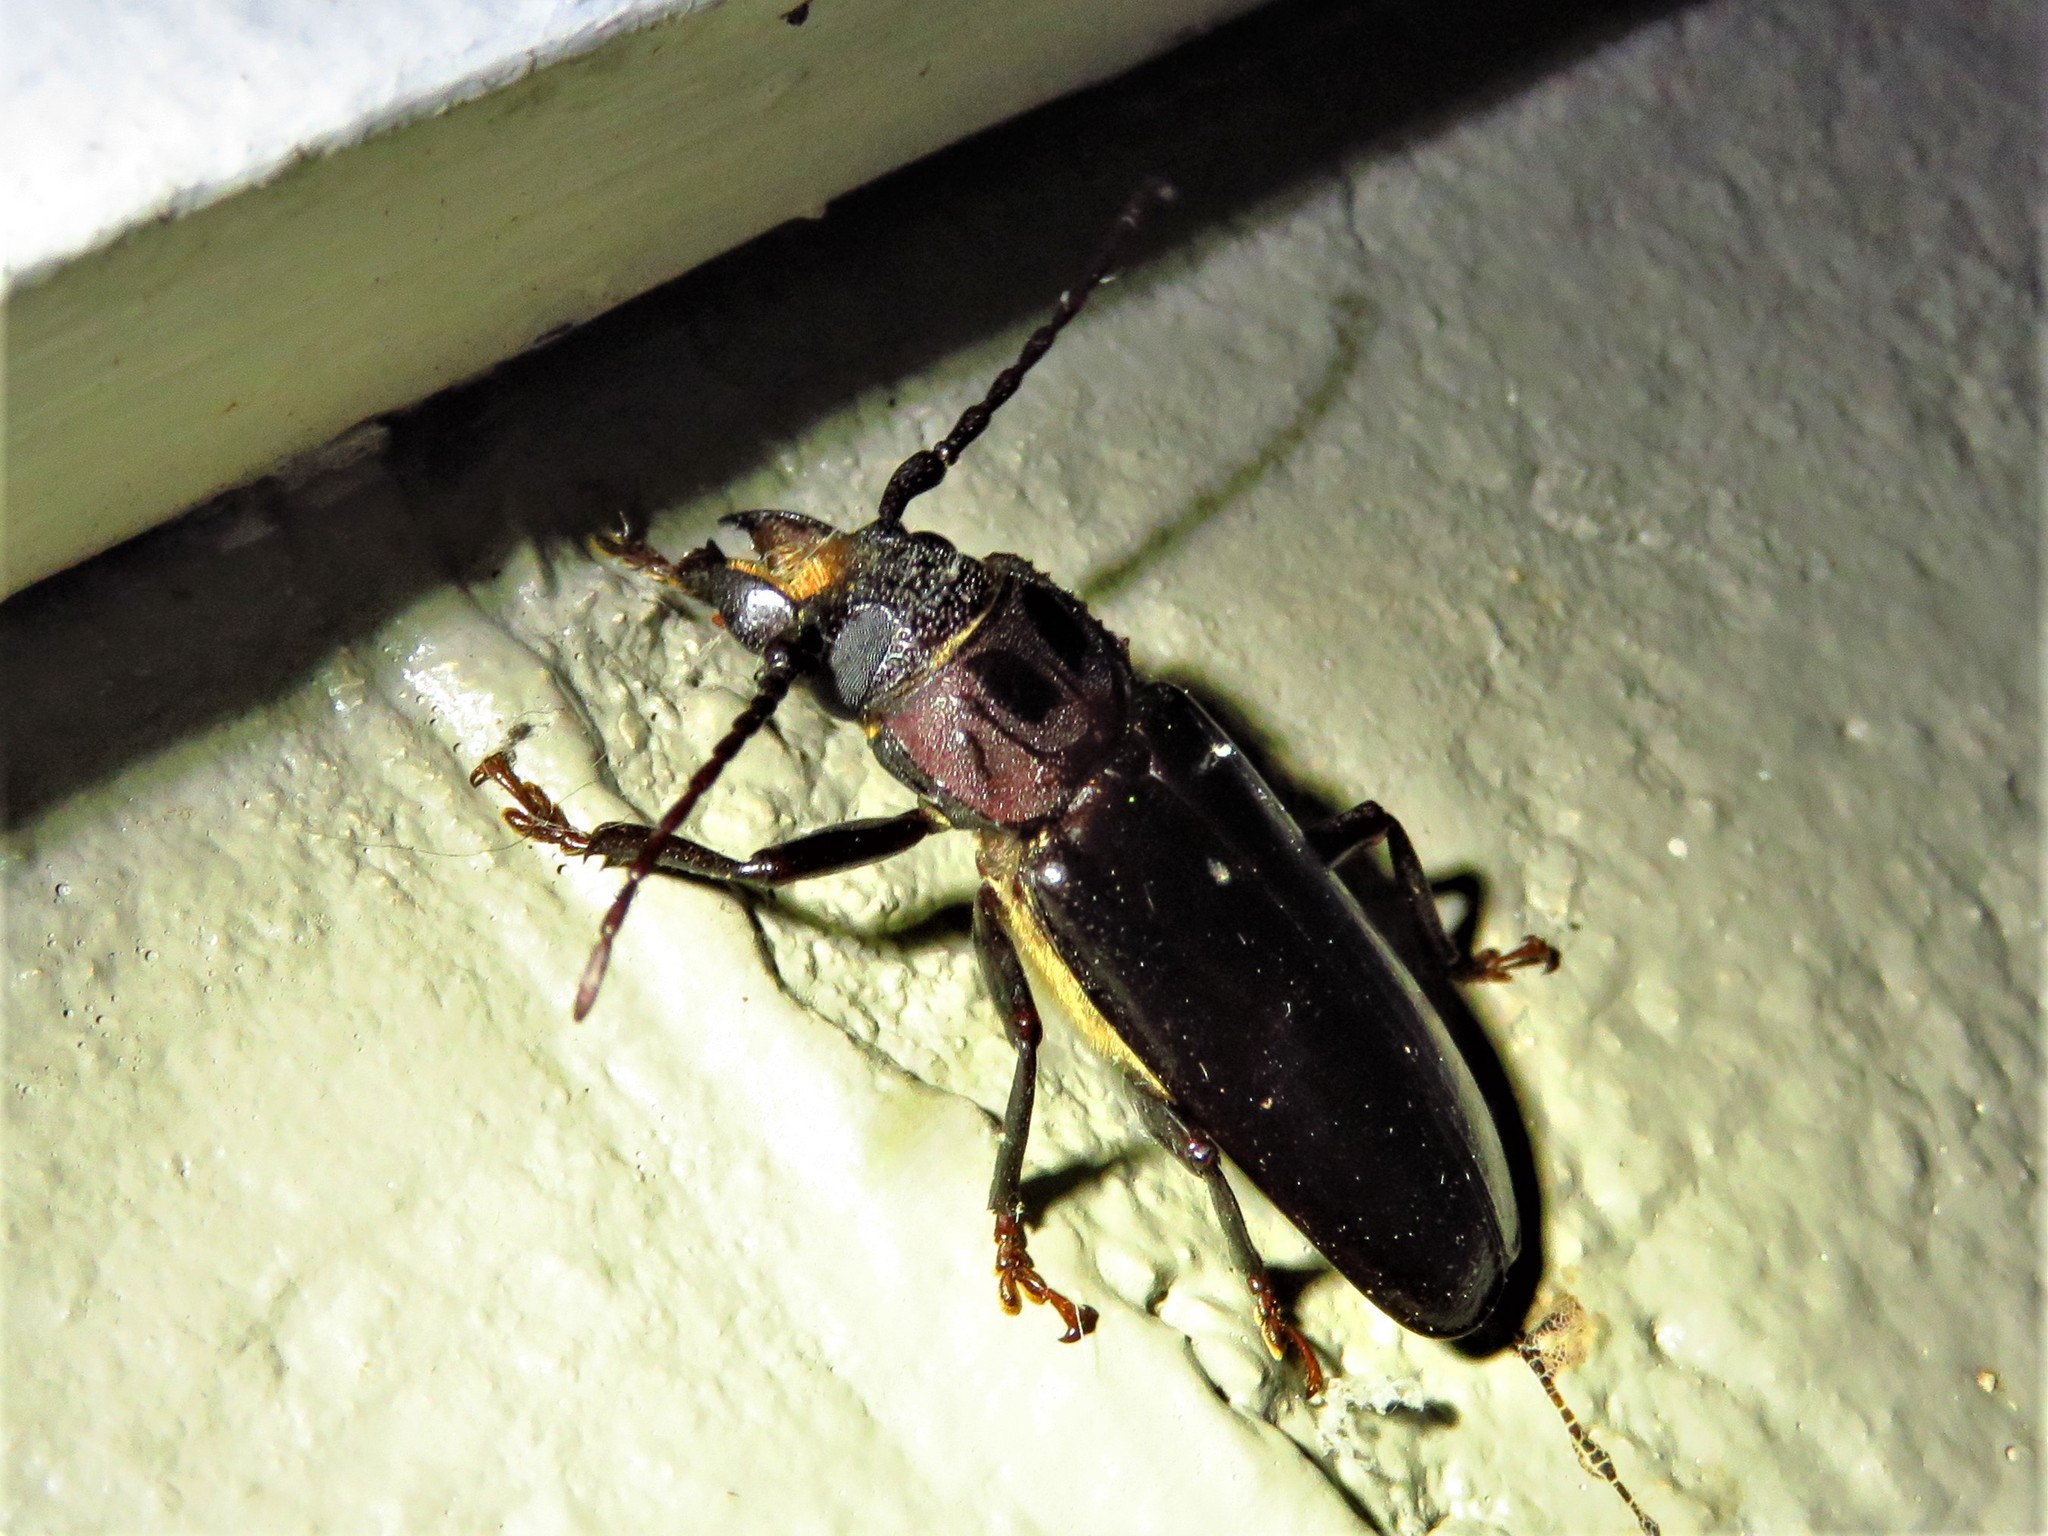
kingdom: Animalia
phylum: Arthropoda
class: Insecta
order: Coleoptera
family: Cerambycidae
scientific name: Cerambycidae
